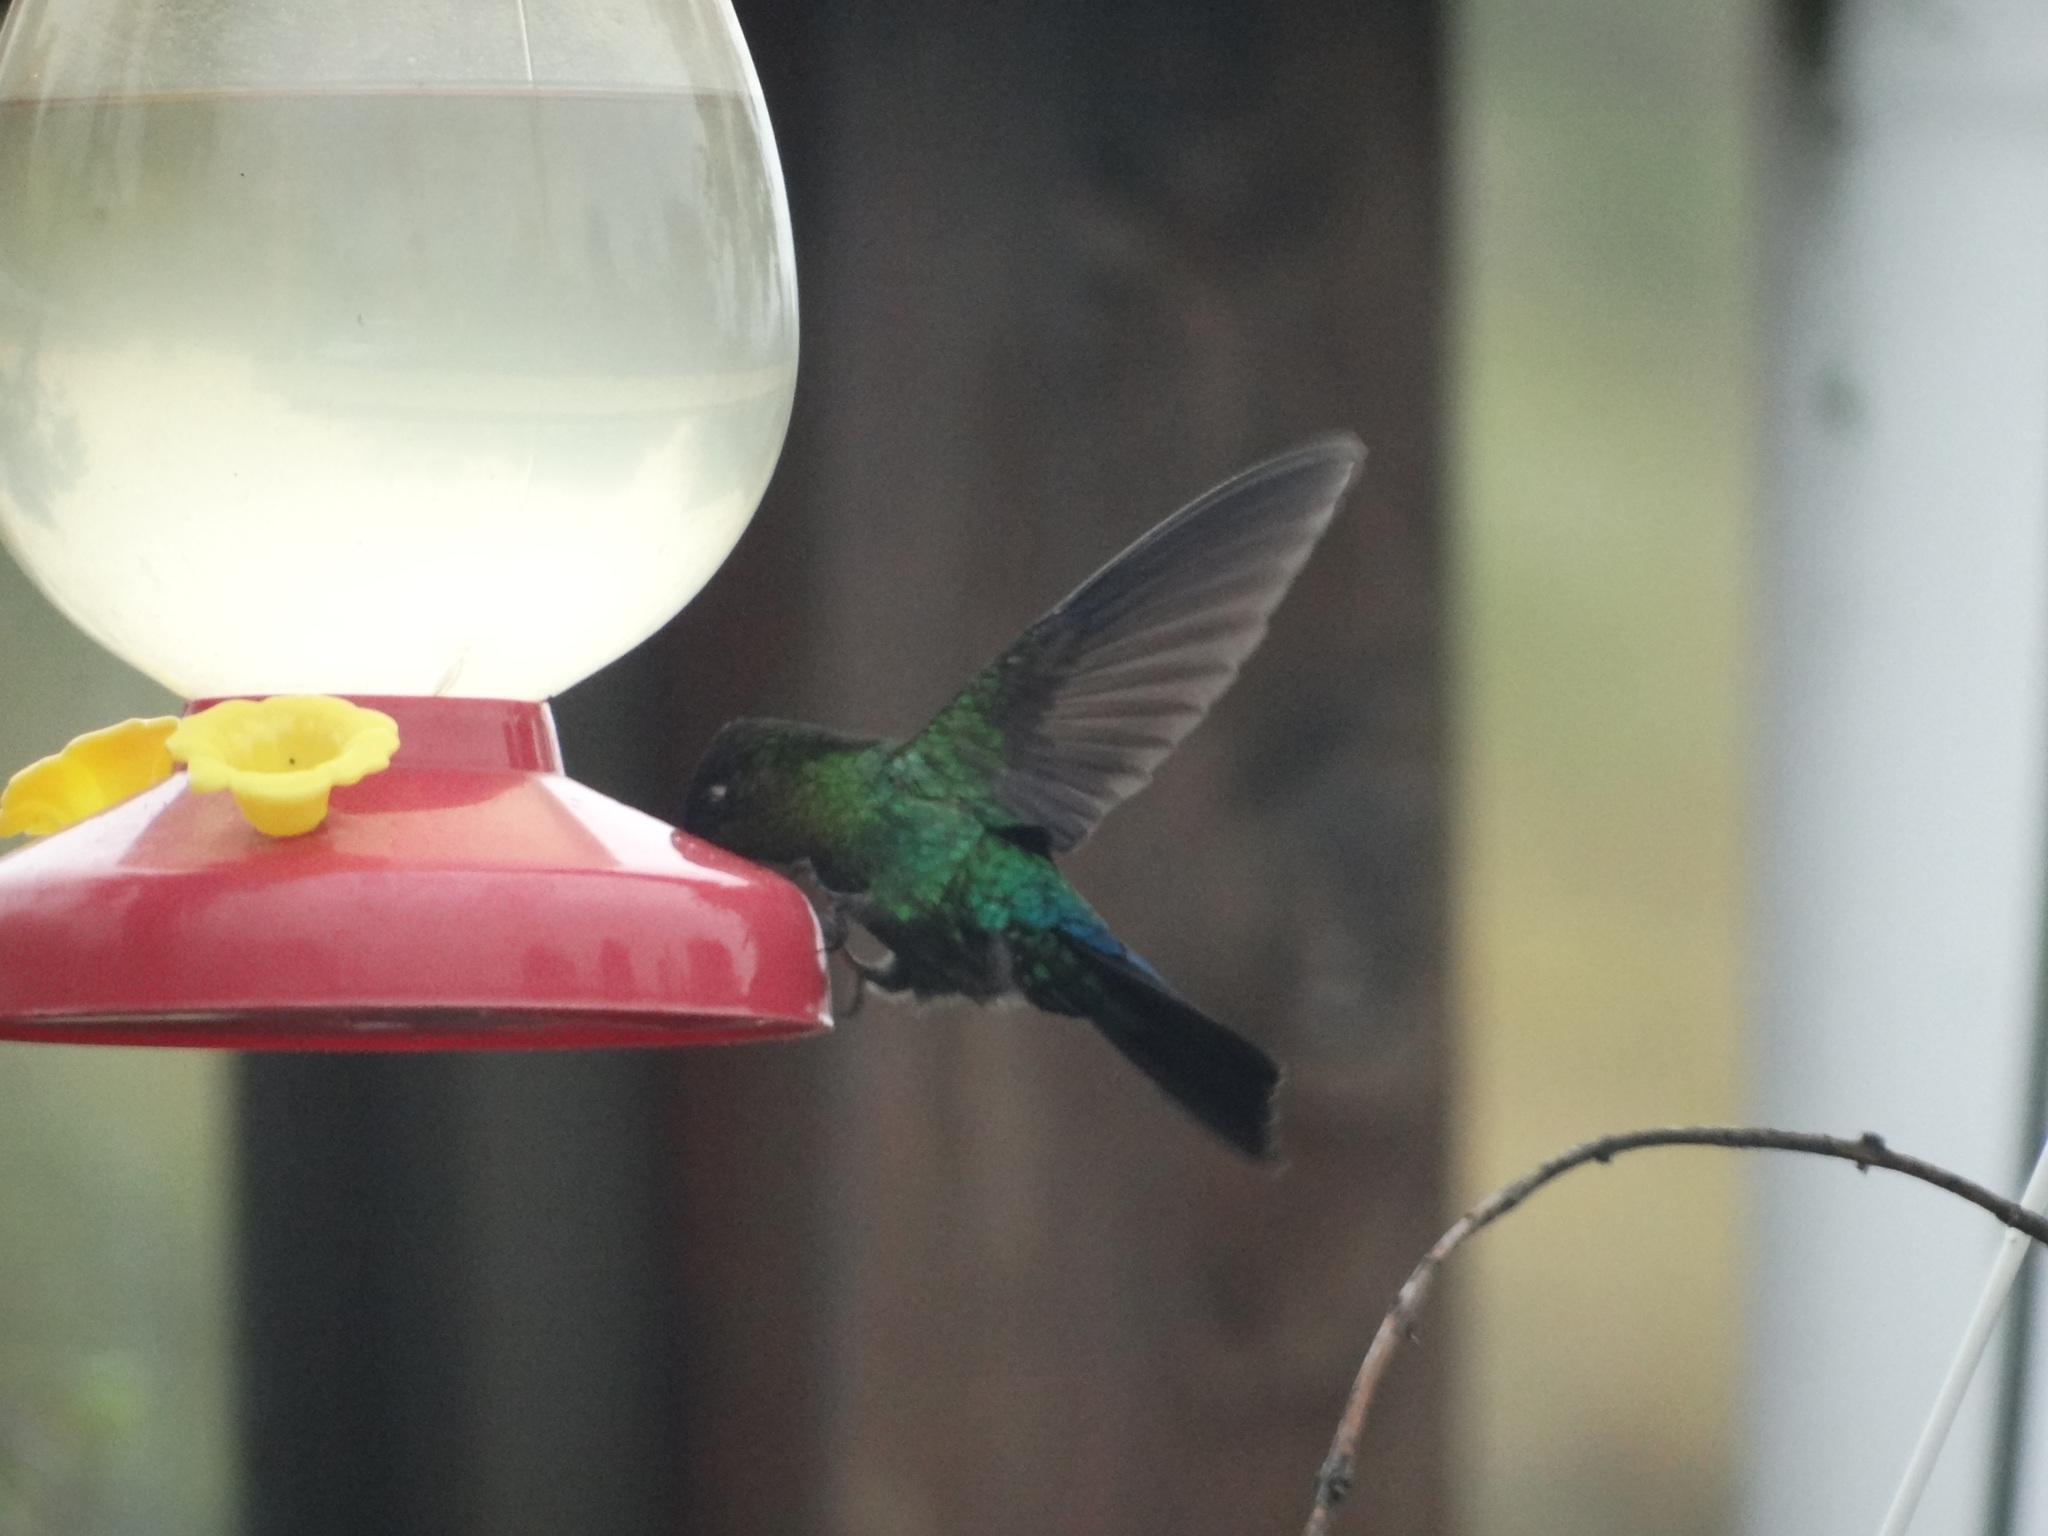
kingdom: Animalia
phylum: Chordata
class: Aves
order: Apodiformes
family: Trochilidae
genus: Panterpe
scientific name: Panterpe insignis
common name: Fiery-throated hummingbird
